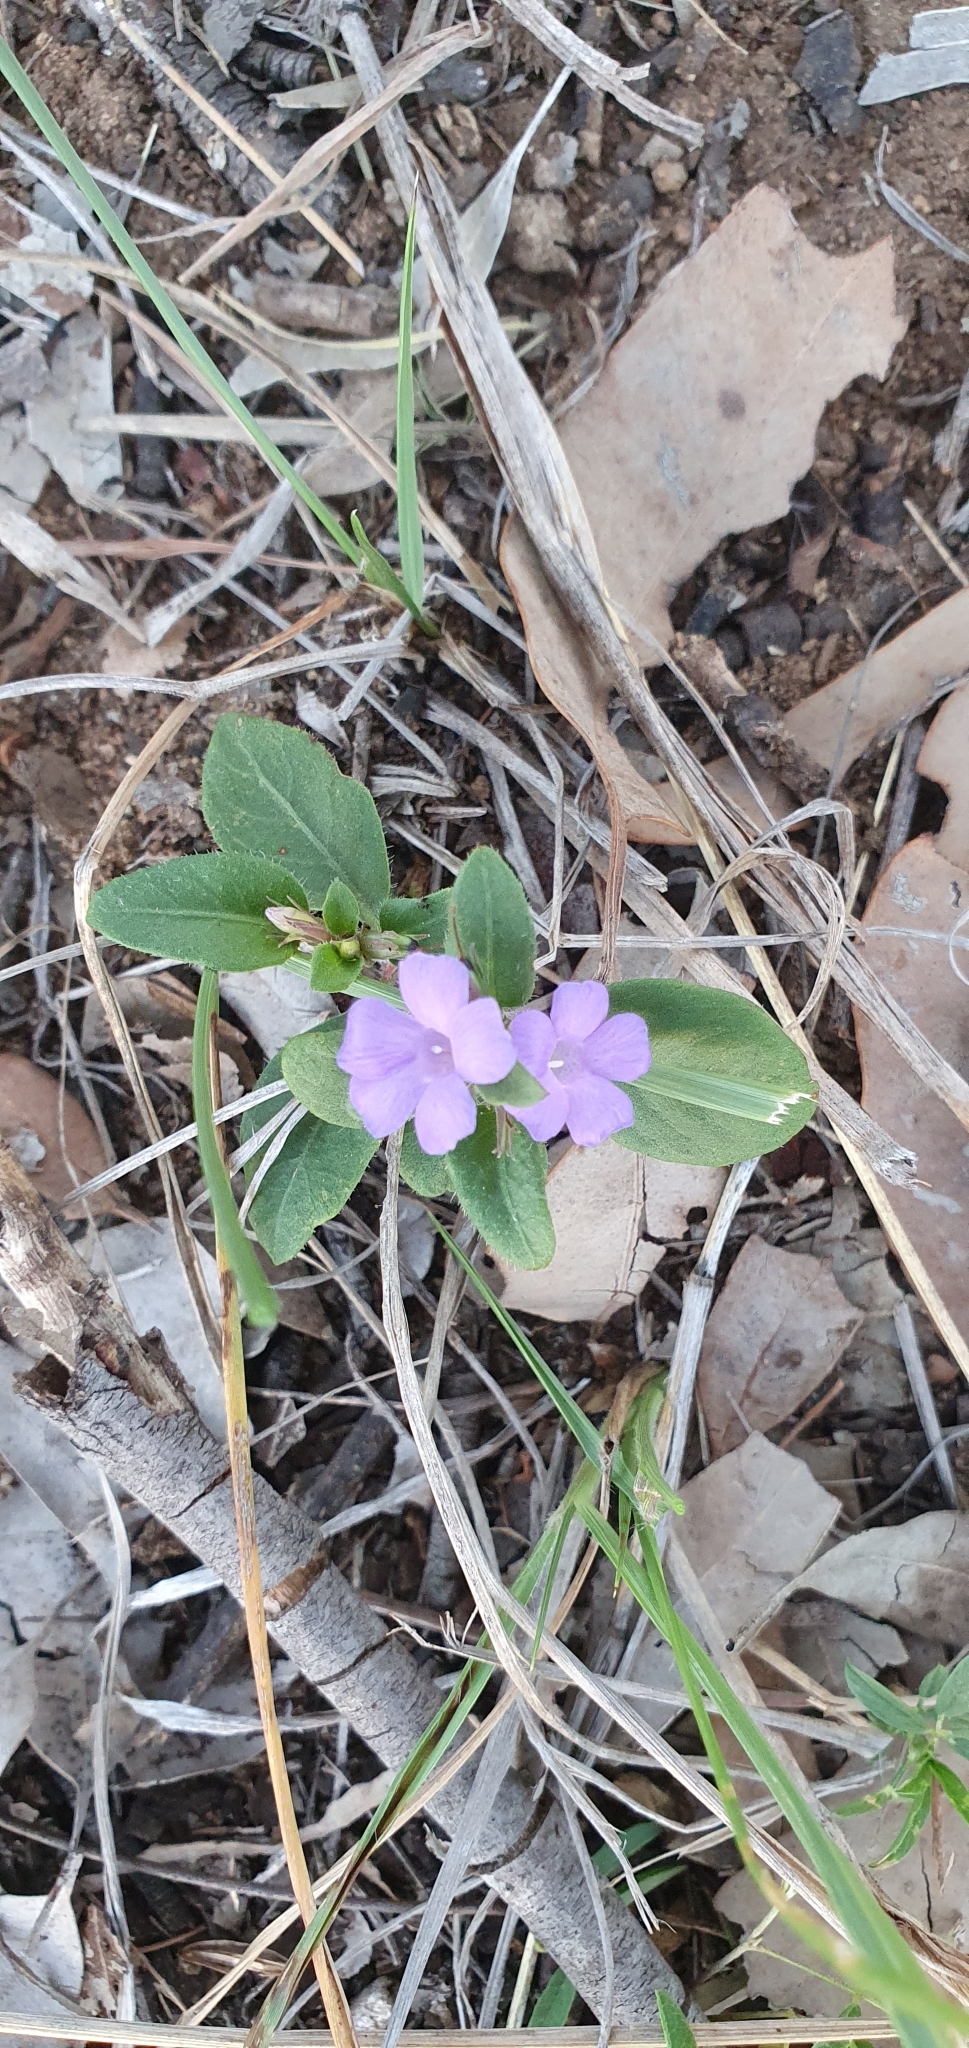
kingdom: Plantae
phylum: Tracheophyta
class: Magnoliopsida
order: Lamiales
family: Acanthaceae
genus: Brunoniella
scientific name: Brunoniella australis
